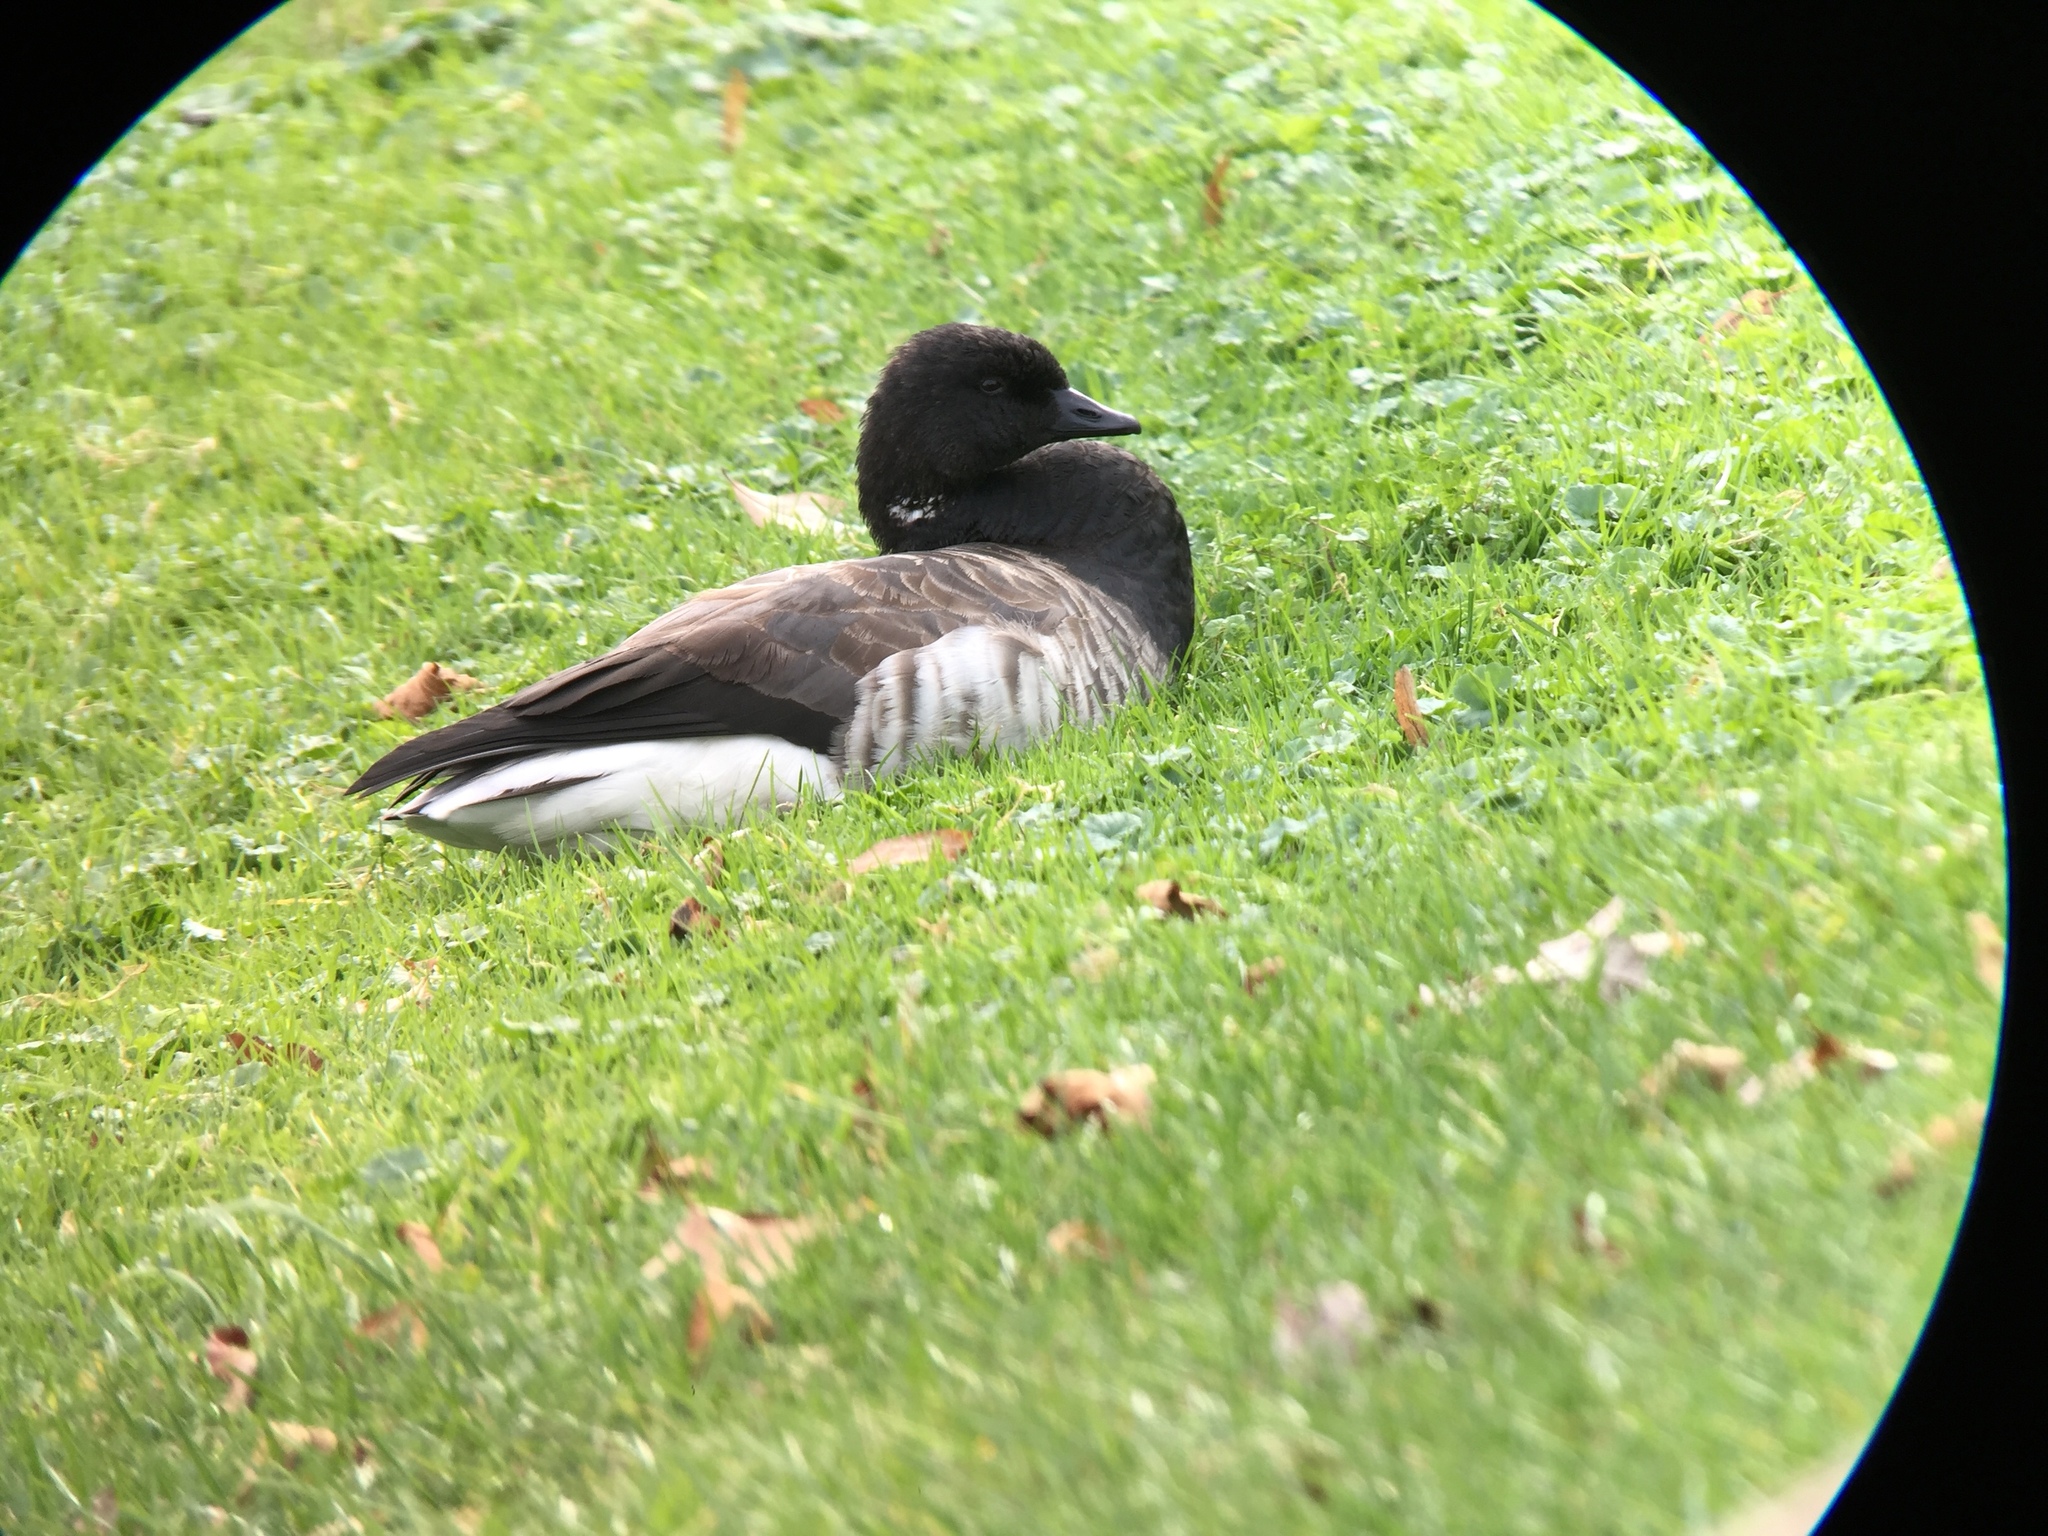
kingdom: Animalia
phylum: Chordata
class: Aves
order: Anseriformes
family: Anatidae
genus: Branta
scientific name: Branta bernicla
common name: Brant goose
